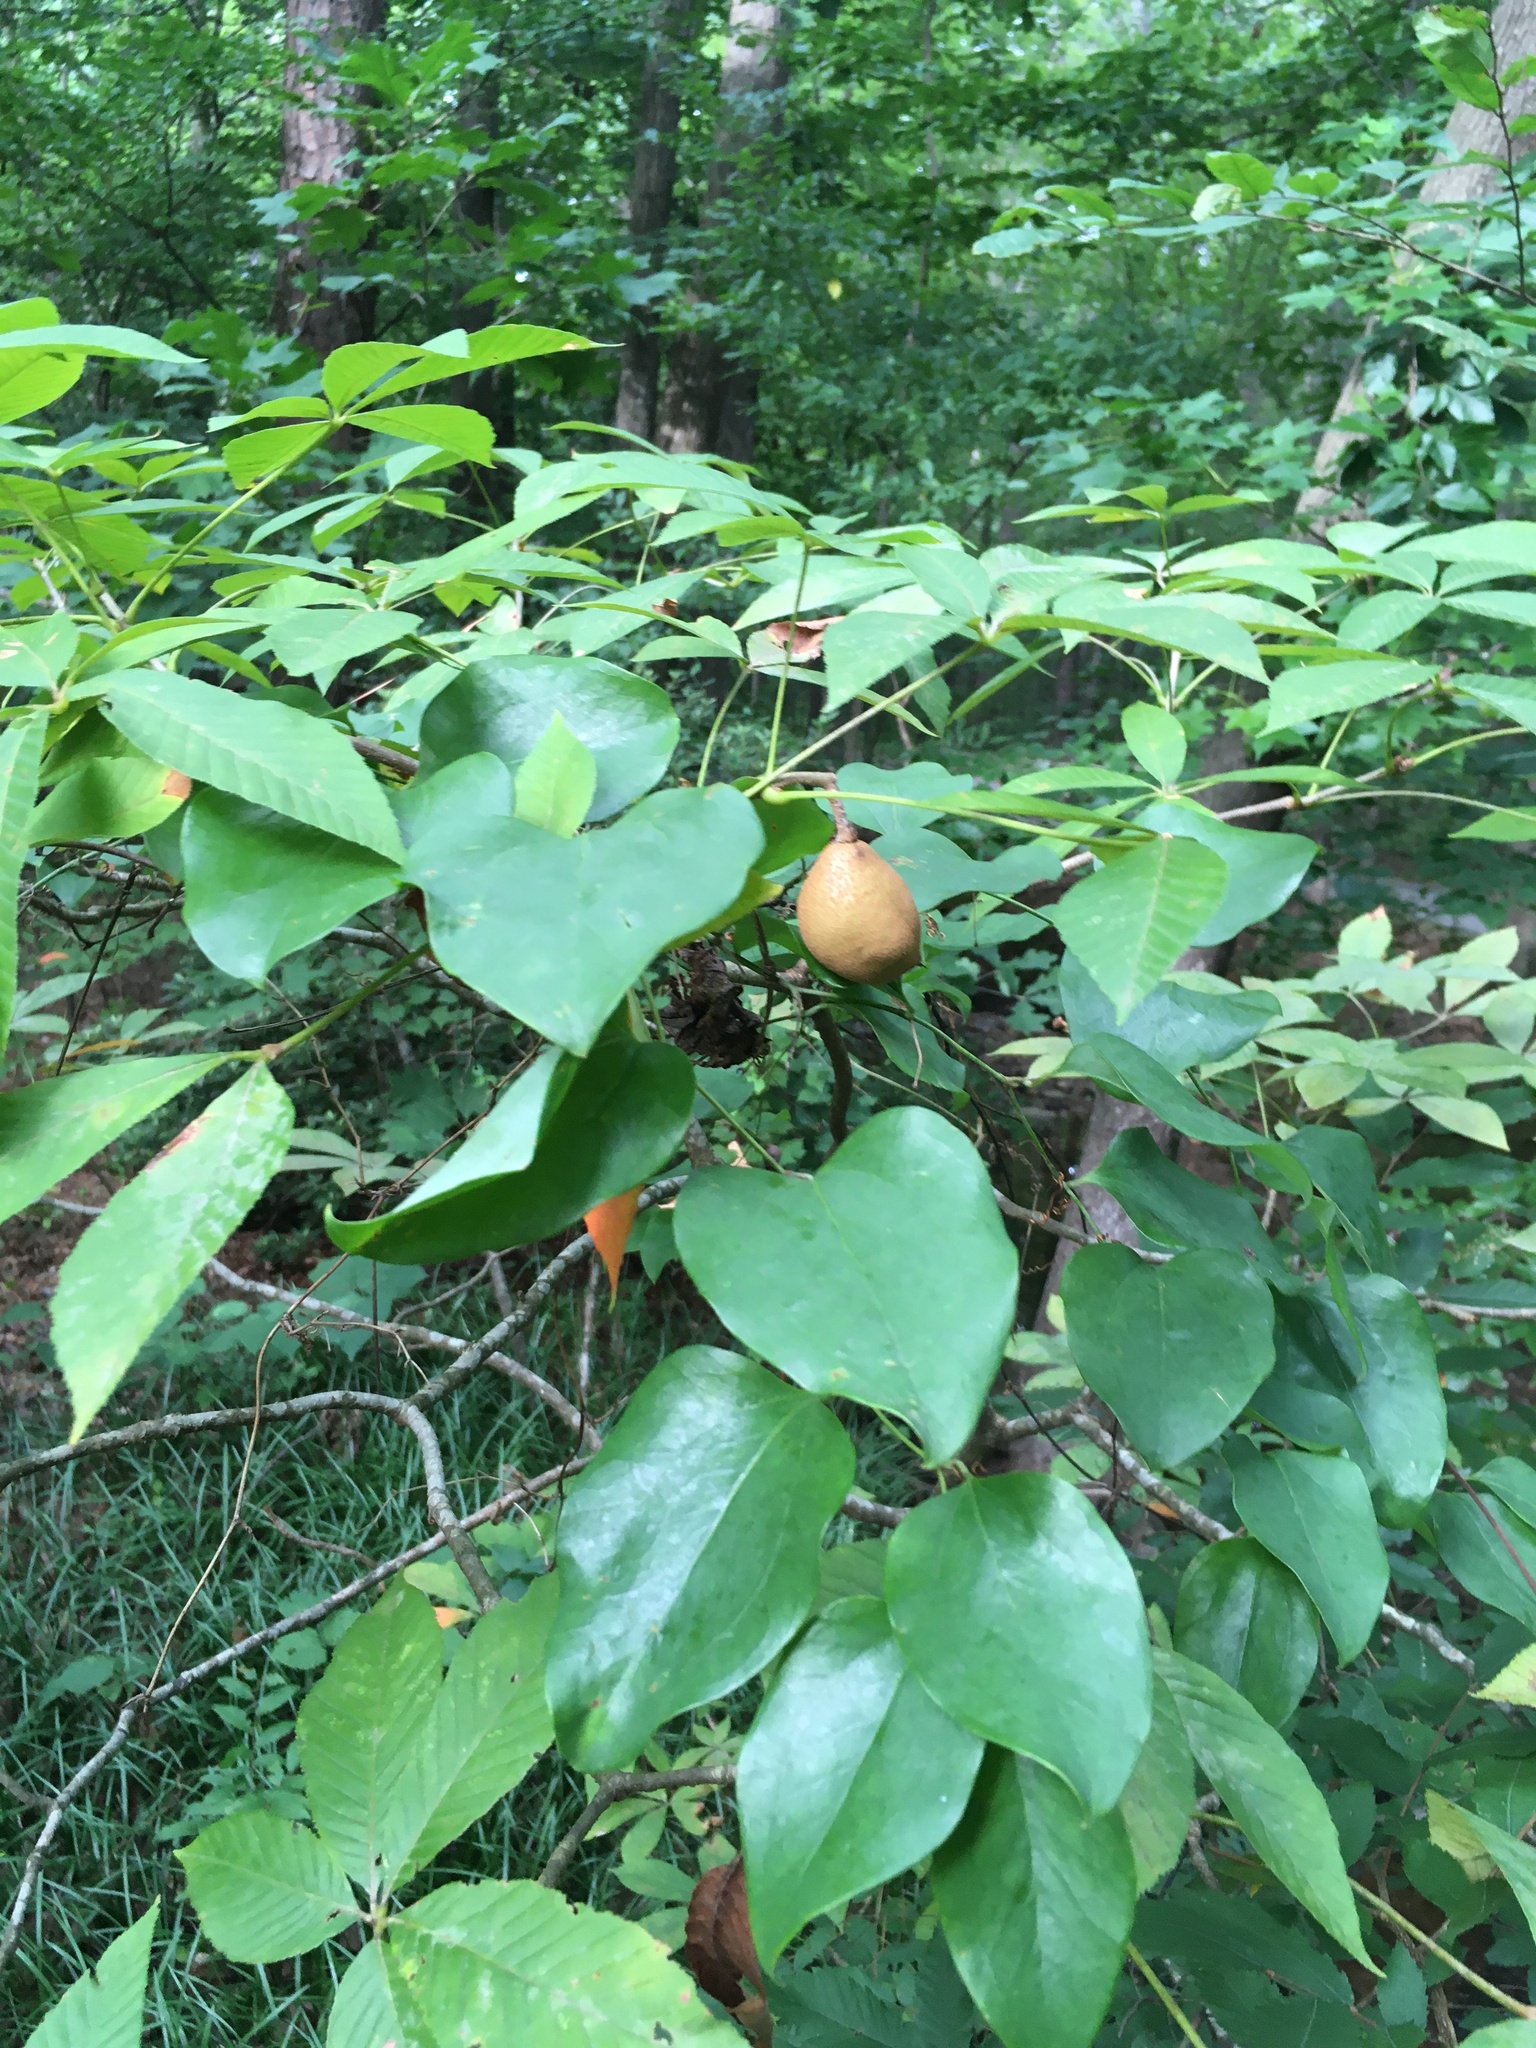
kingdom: Plantae
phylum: Tracheophyta
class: Magnoliopsida
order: Sapindales
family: Sapindaceae
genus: Aesculus
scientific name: Aesculus sylvatica
